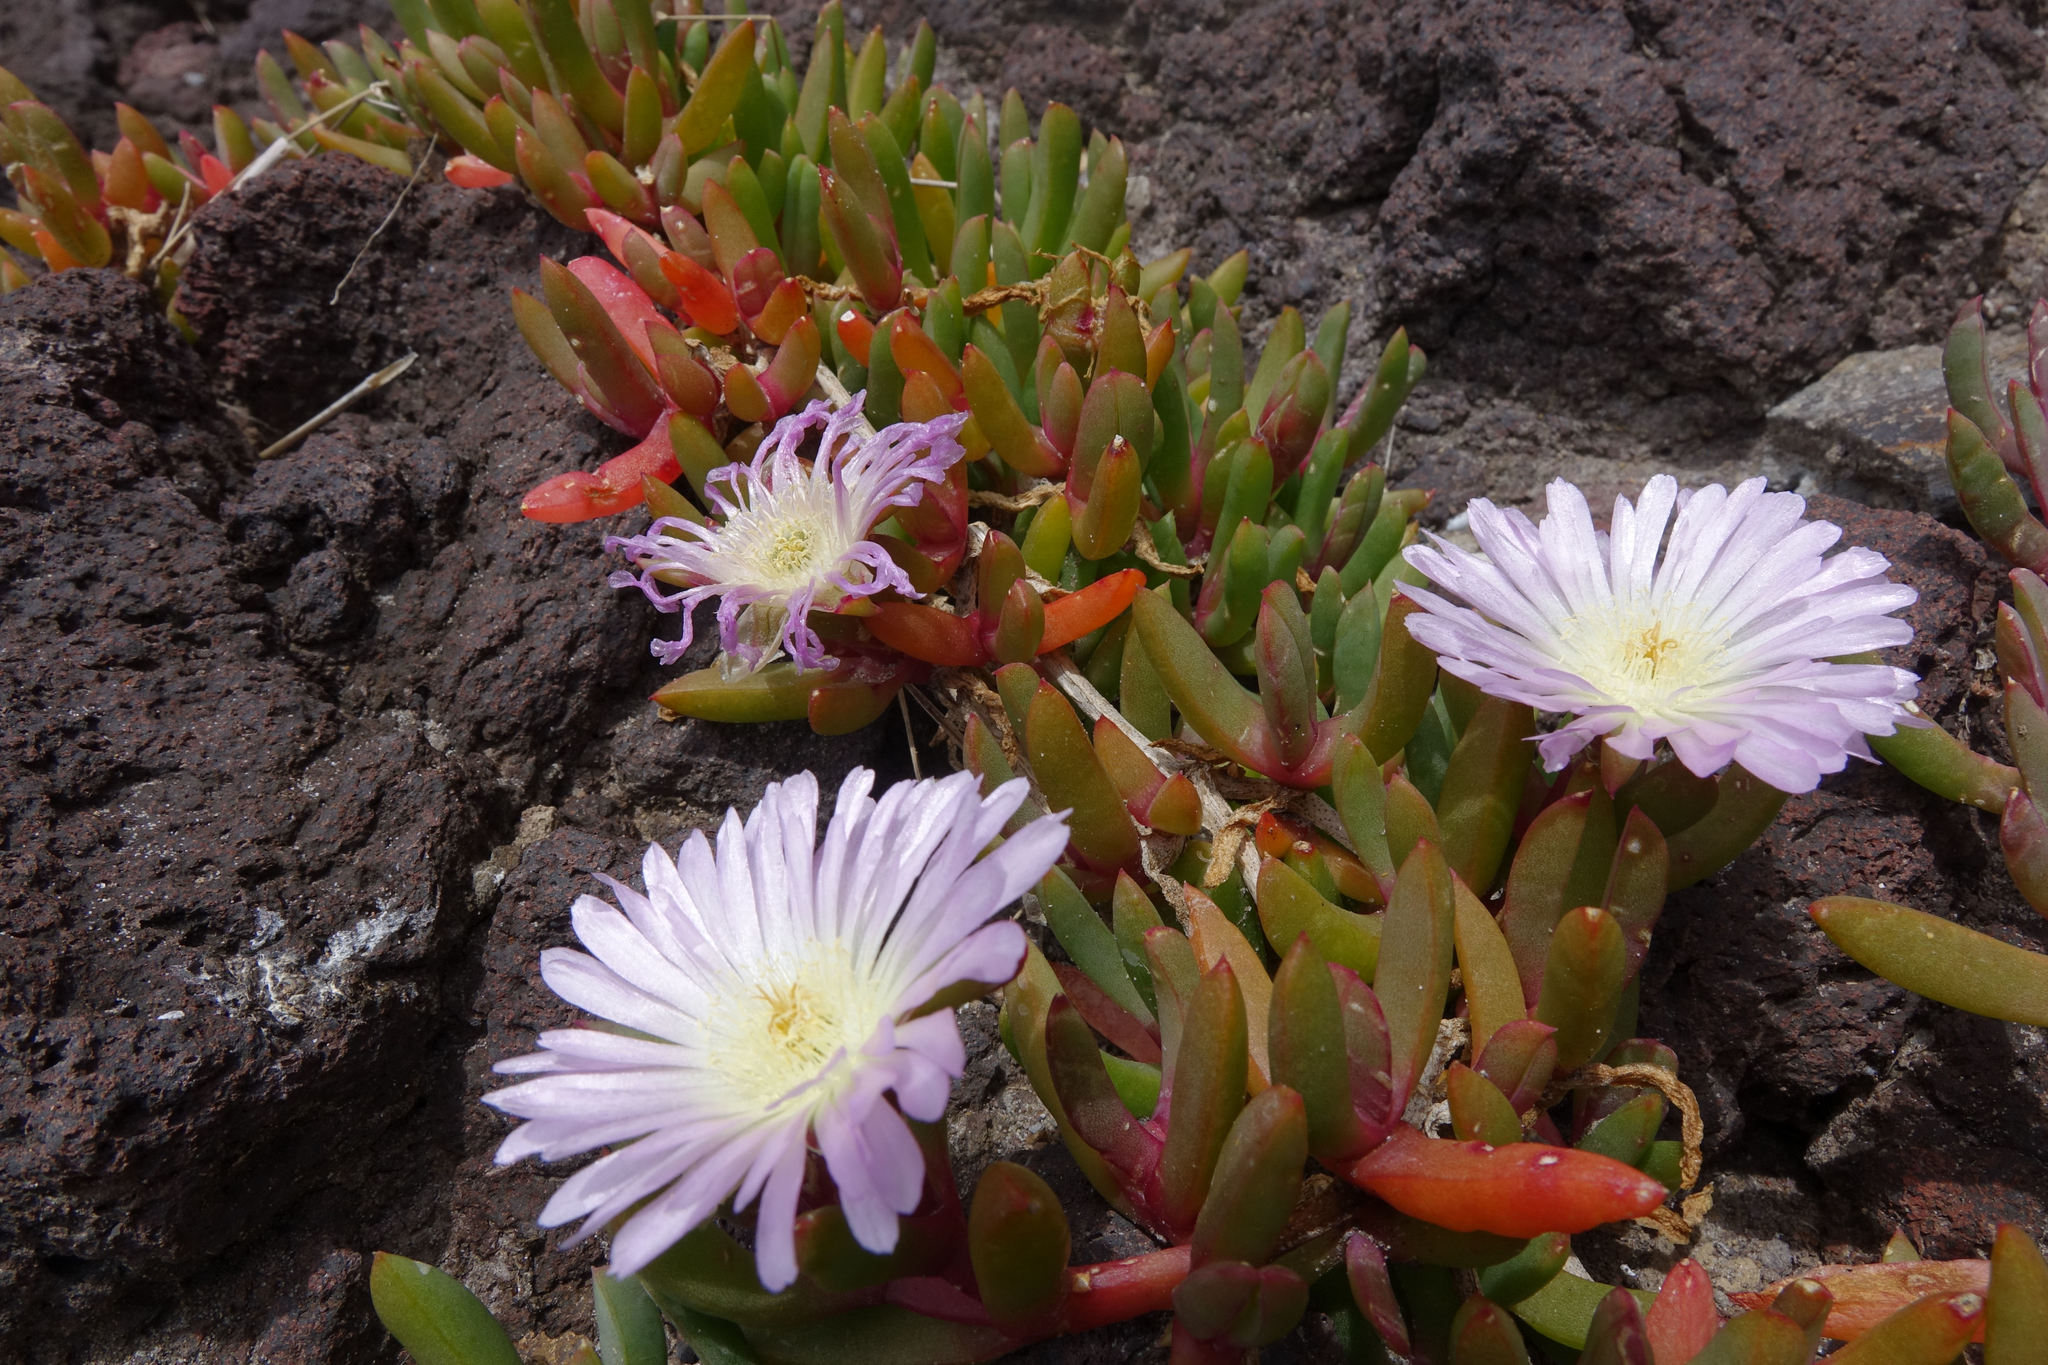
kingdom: Plantae
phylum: Tracheophyta
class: Magnoliopsida
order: Caryophyllales
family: Aizoaceae
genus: Disphyma
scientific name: Disphyma australe
